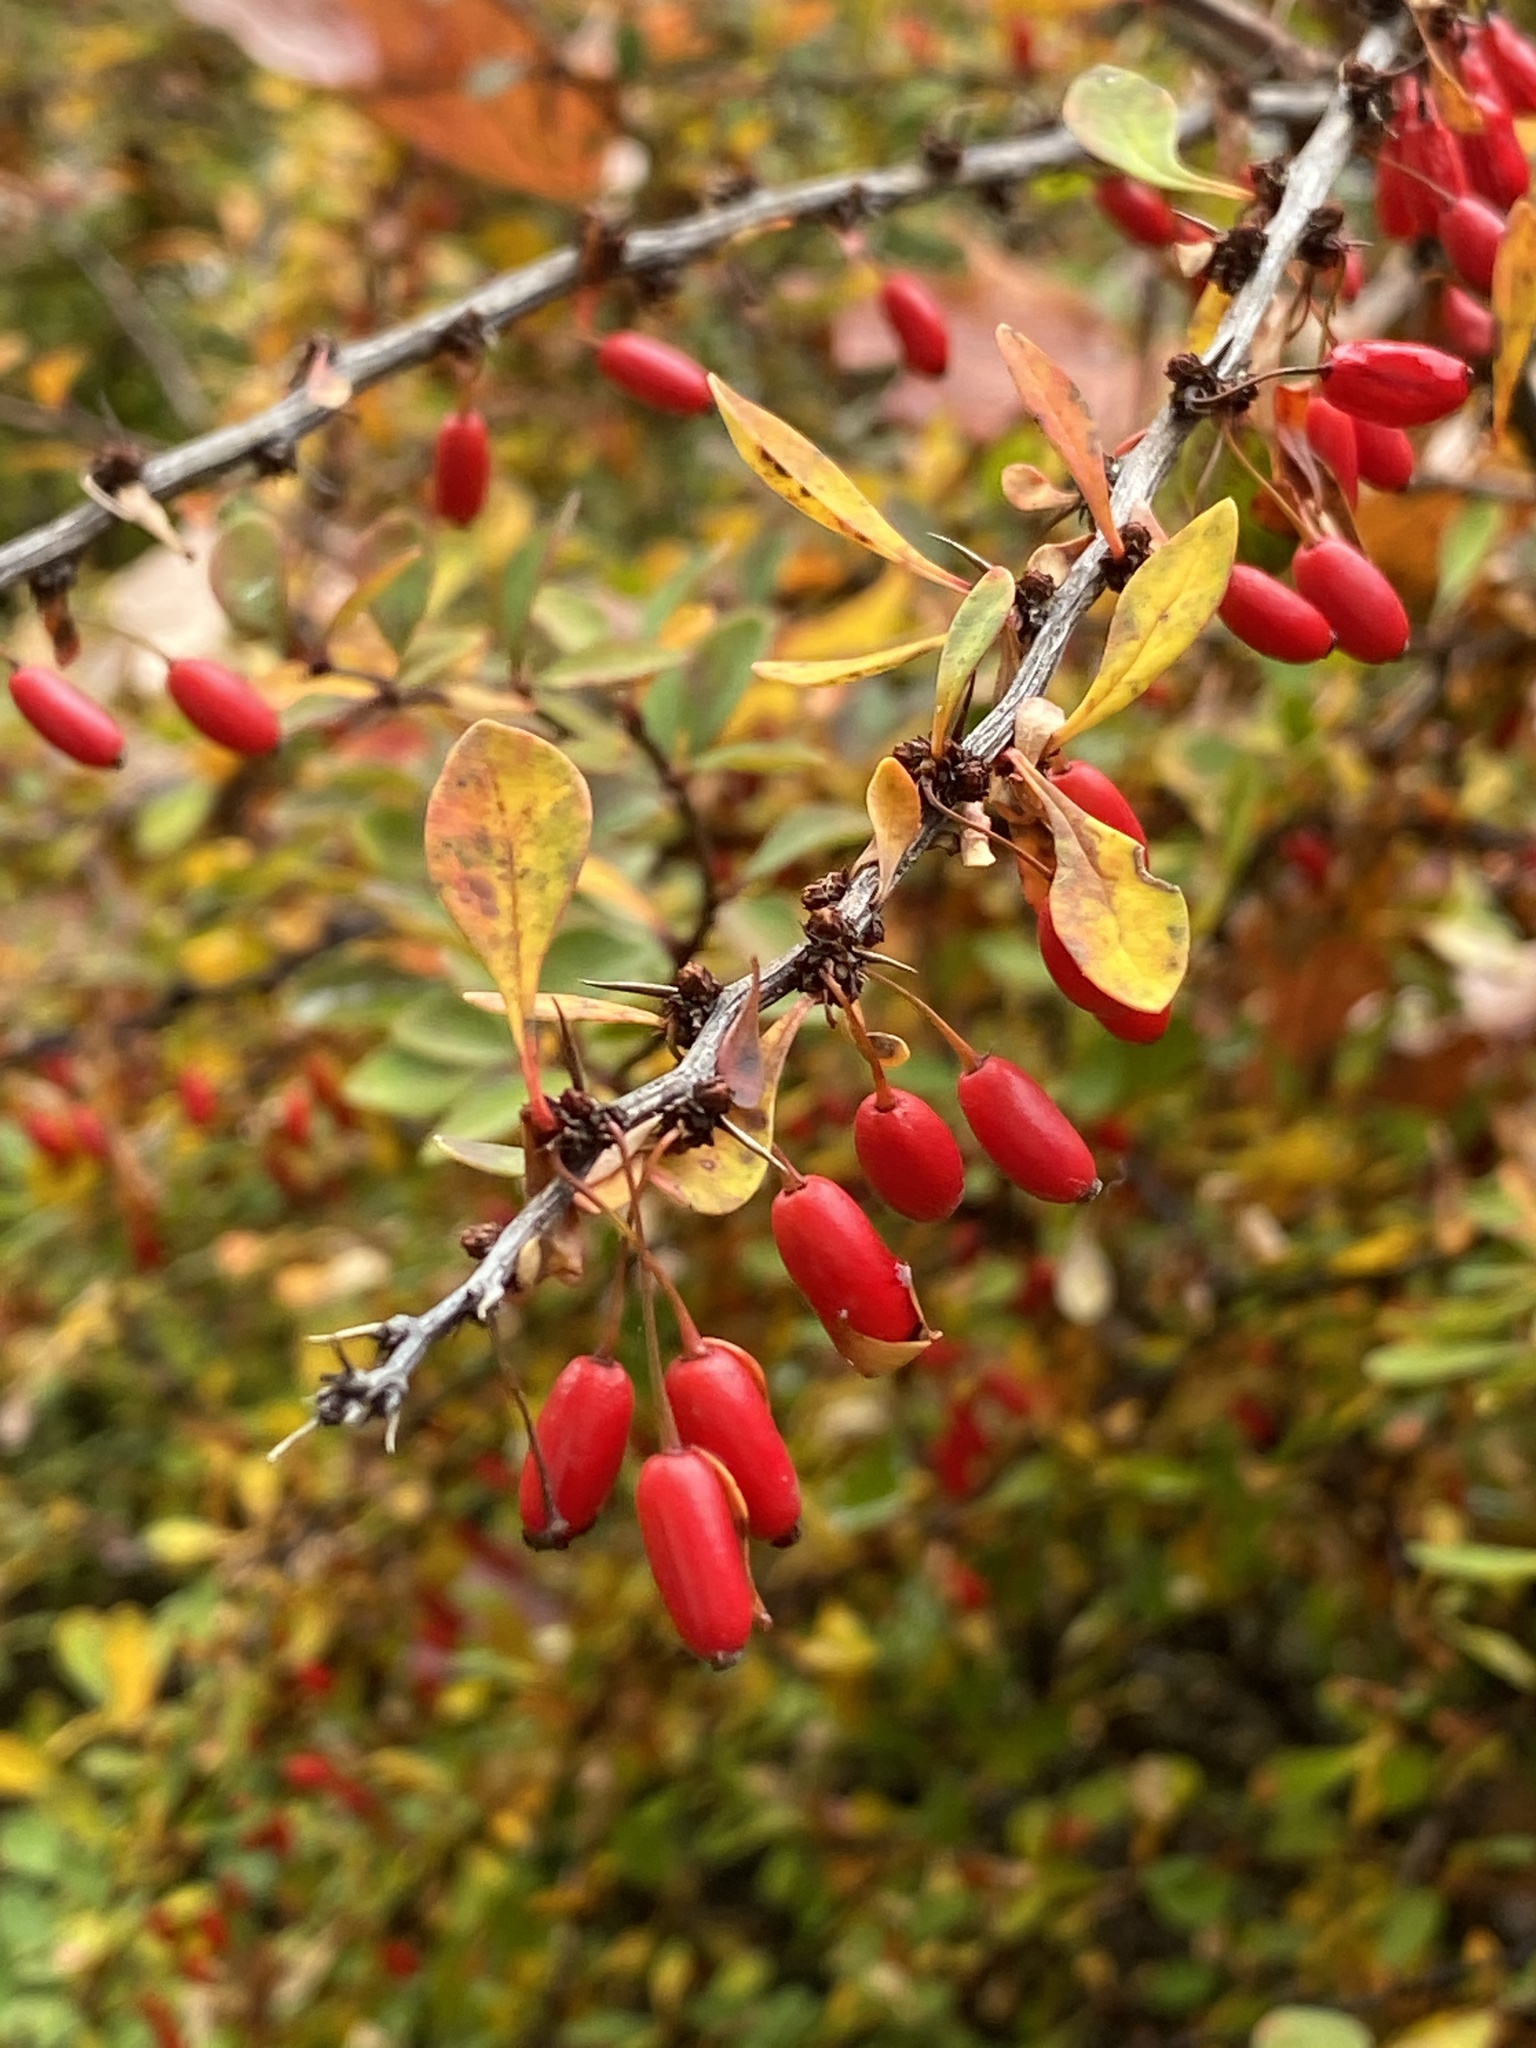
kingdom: Plantae
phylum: Tracheophyta
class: Magnoliopsida
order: Ranunculales
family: Berberidaceae
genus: Berberis
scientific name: Berberis thunbergii
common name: Japanese barberry
